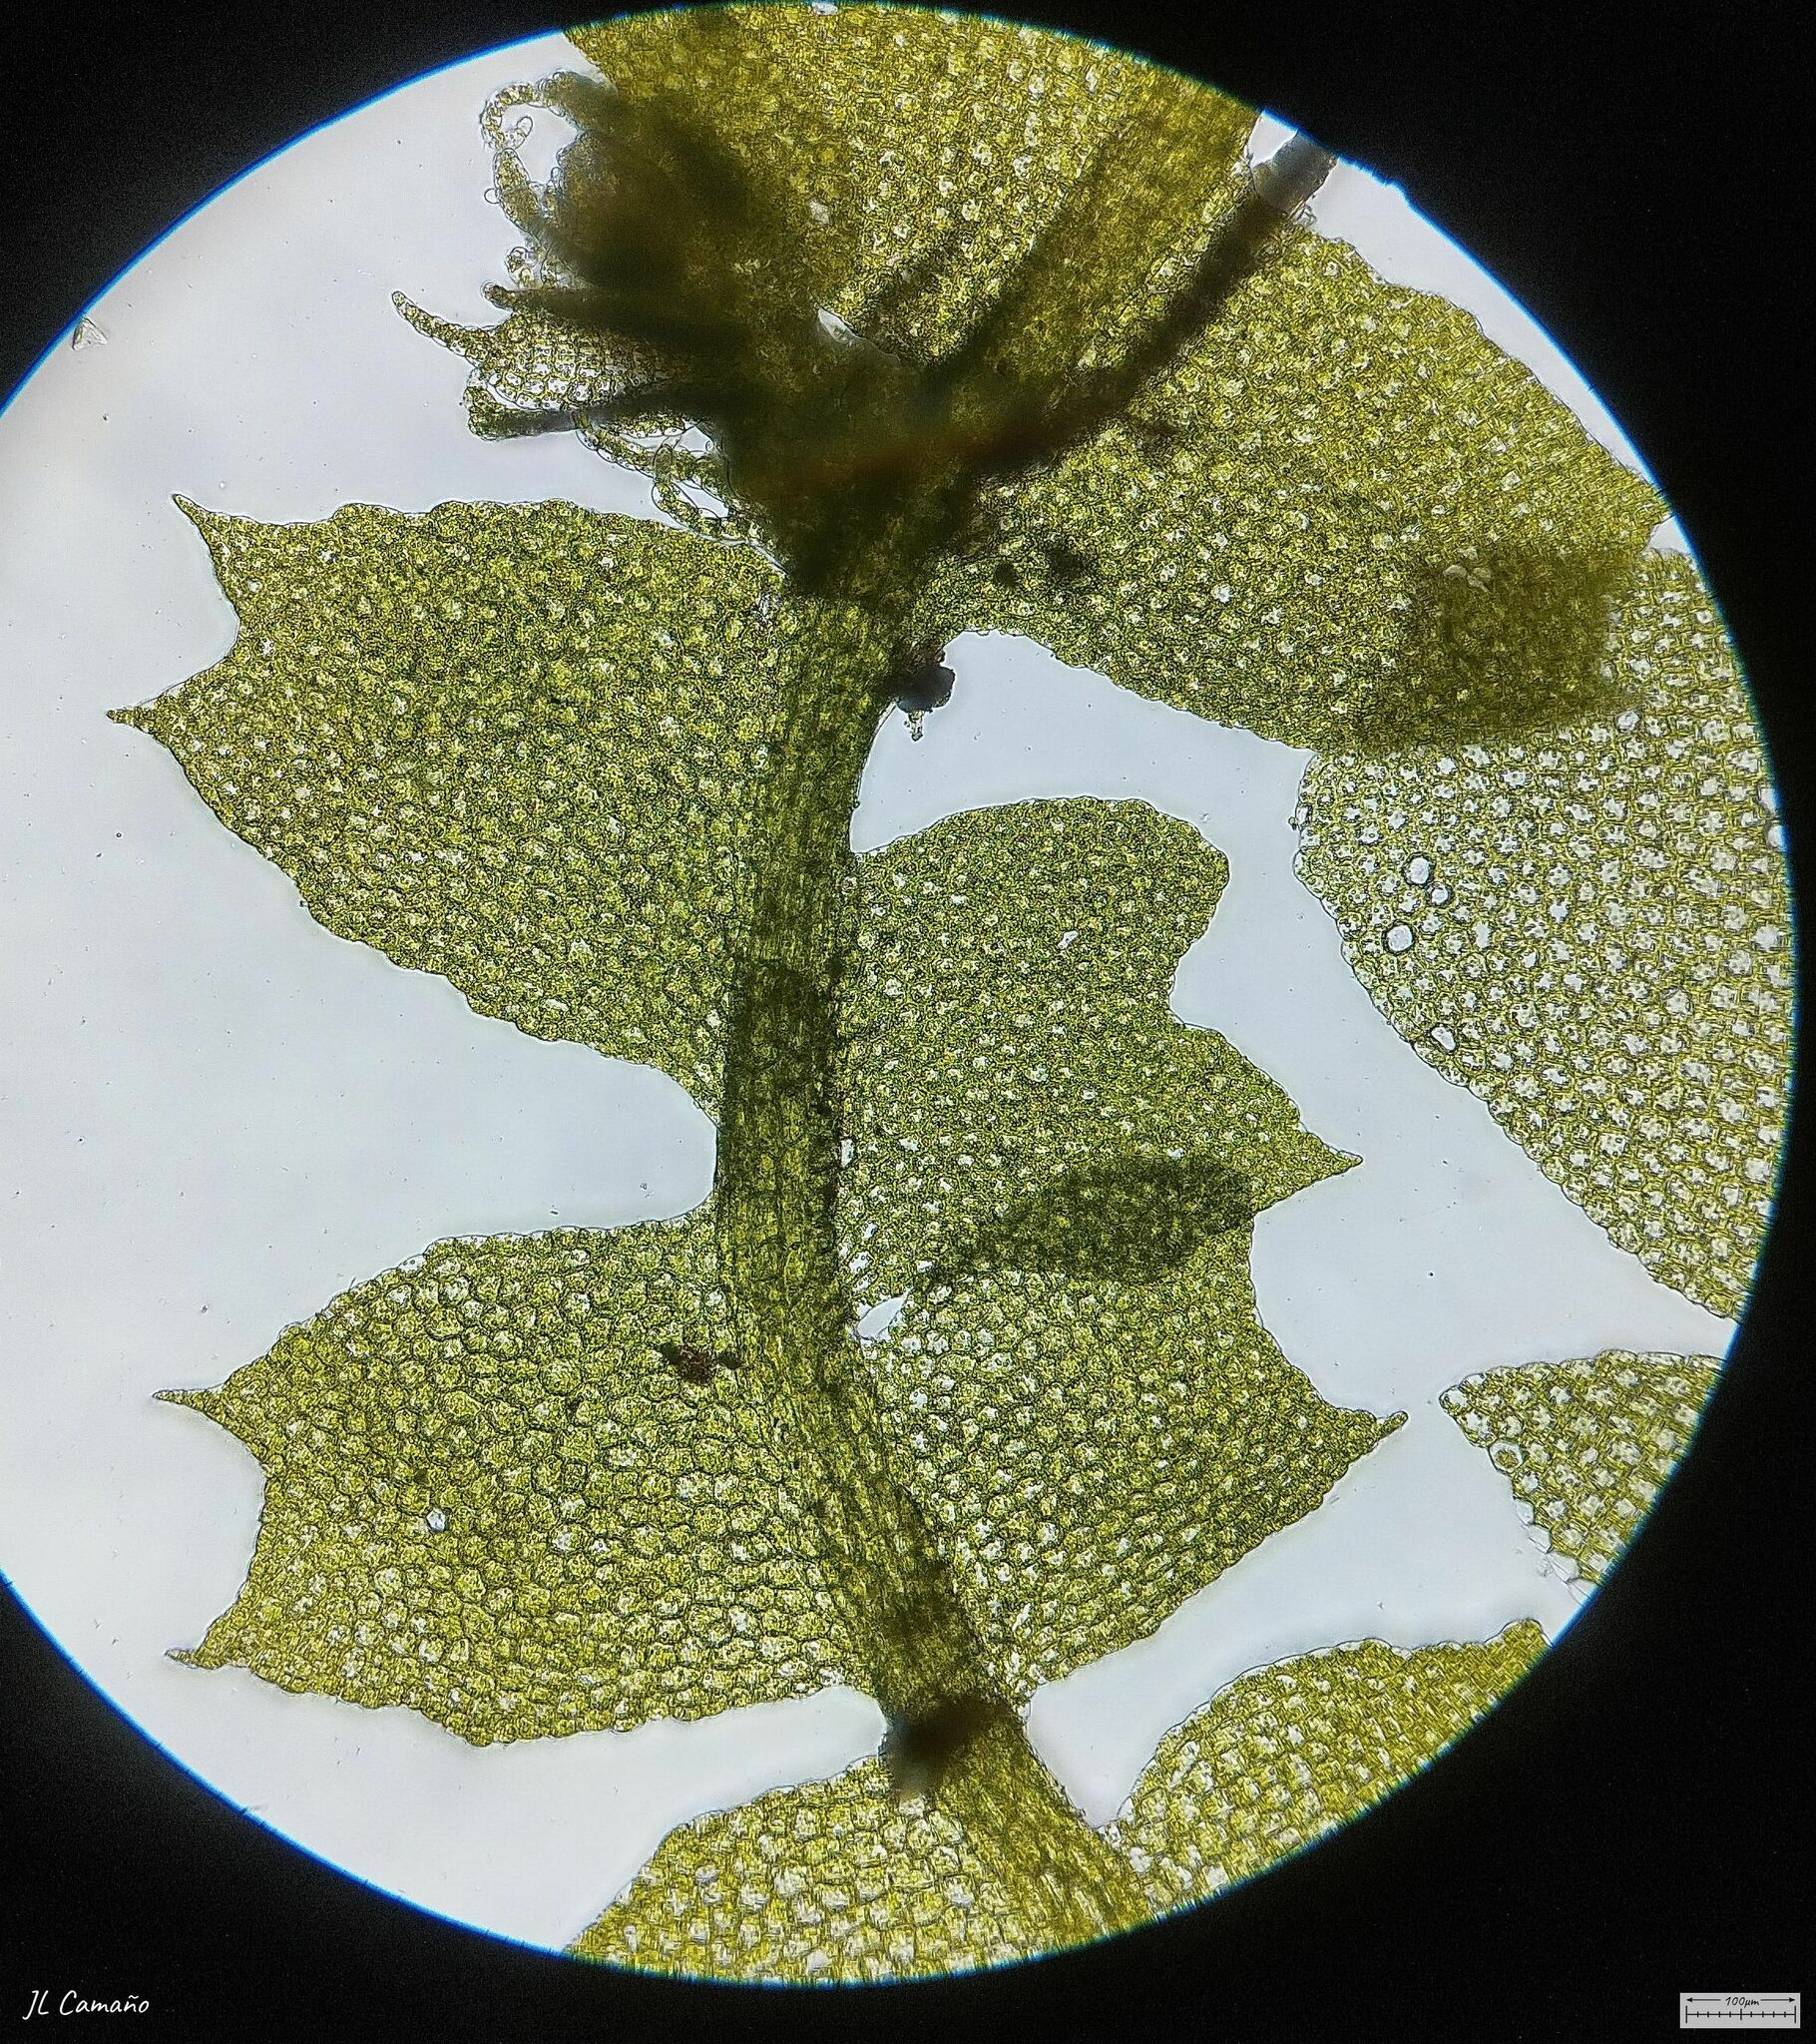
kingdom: Plantae
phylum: Marchantiophyta
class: Jungermanniopsida
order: Jungermanniales
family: Lophocoleaceae
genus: Lophocolea
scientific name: Lophocolea heterophylla
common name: Variable-leaved crestwort
